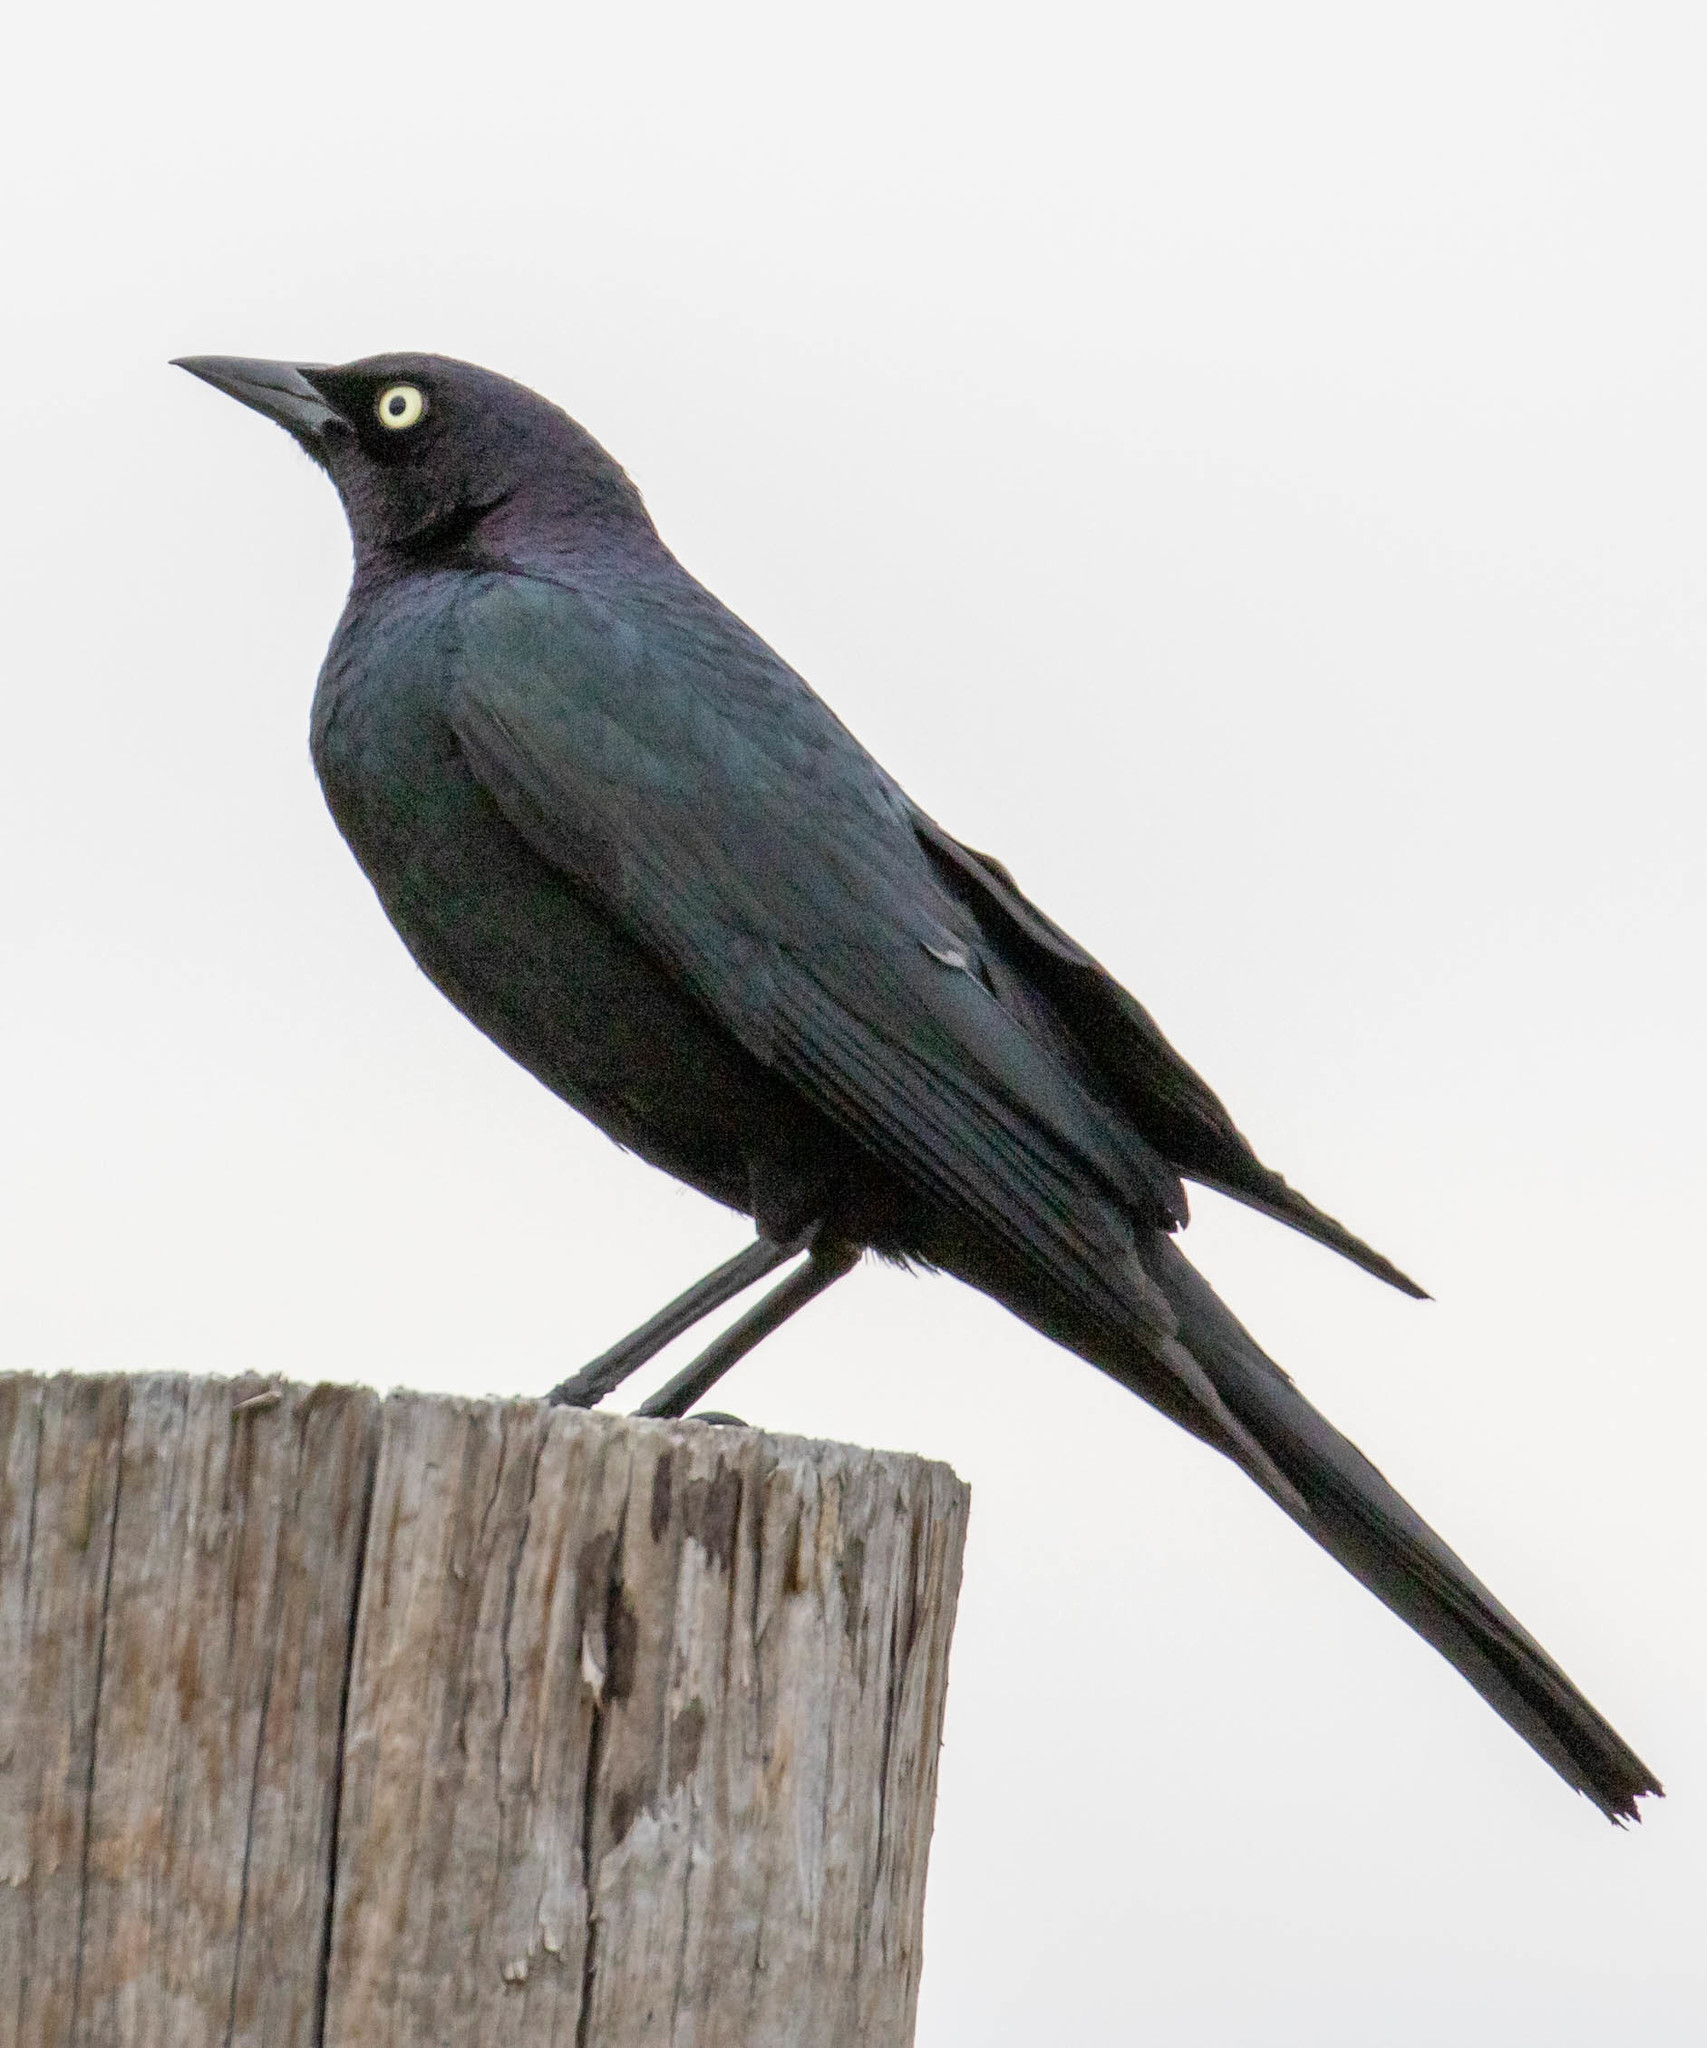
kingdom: Animalia
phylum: Chordata
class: Aves
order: Passeriformes
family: Icteridae
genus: Euphagus
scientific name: Euphagus cyanocephalus
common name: Brewer's blackbird
